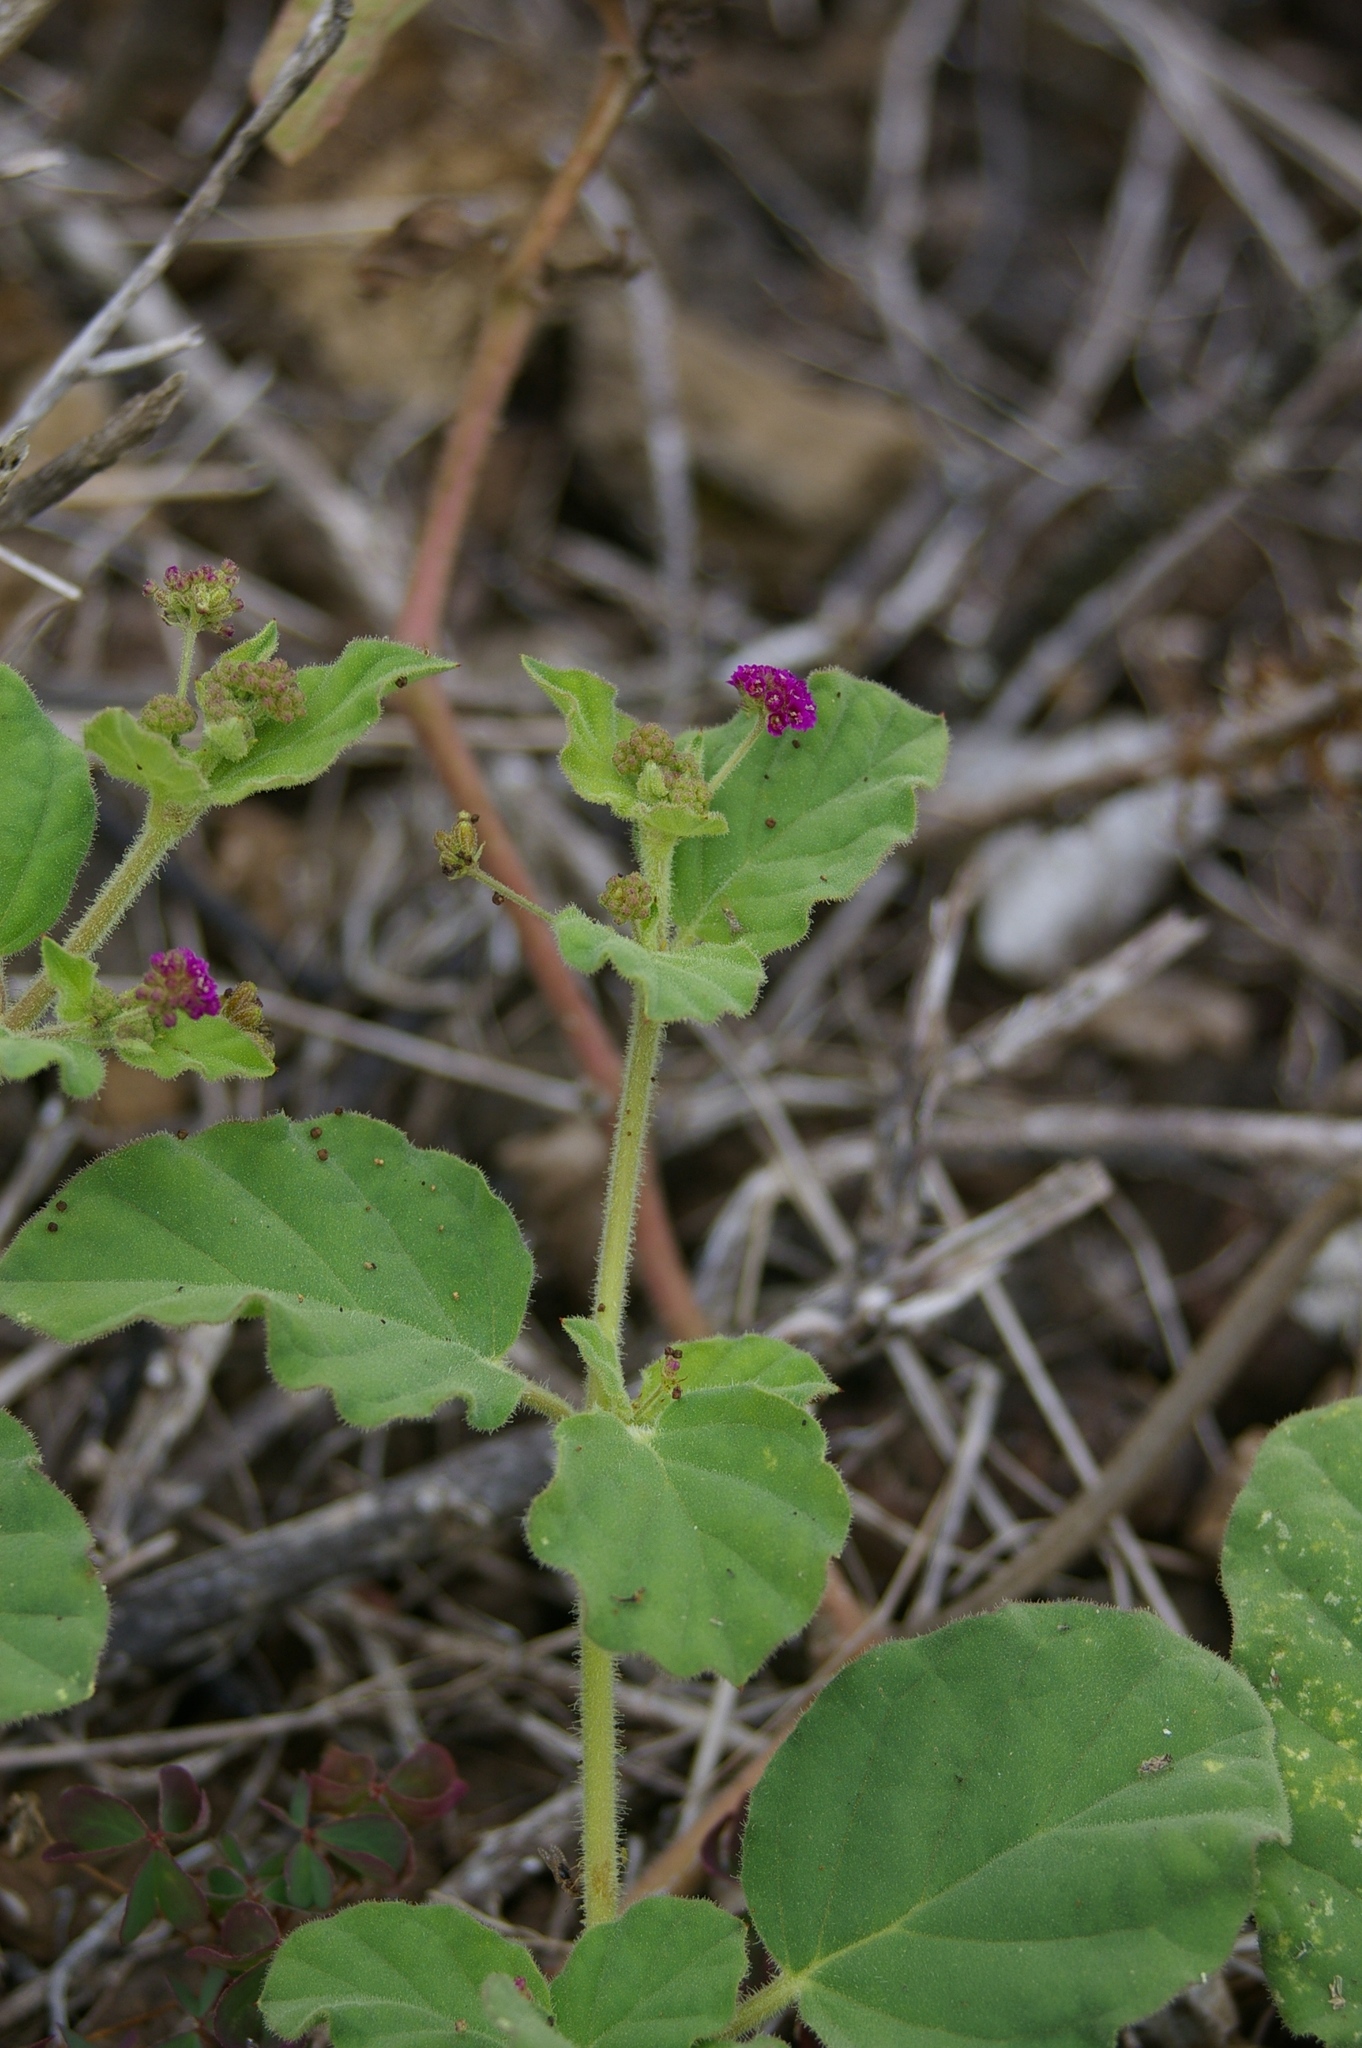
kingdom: Plantae
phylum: Tracheophyta
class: Magnoliopsida
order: Caryophyllales
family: Nyctaginaceae
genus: Boerhavia
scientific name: Boerhavia coccinea
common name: Scarlet spiderling
